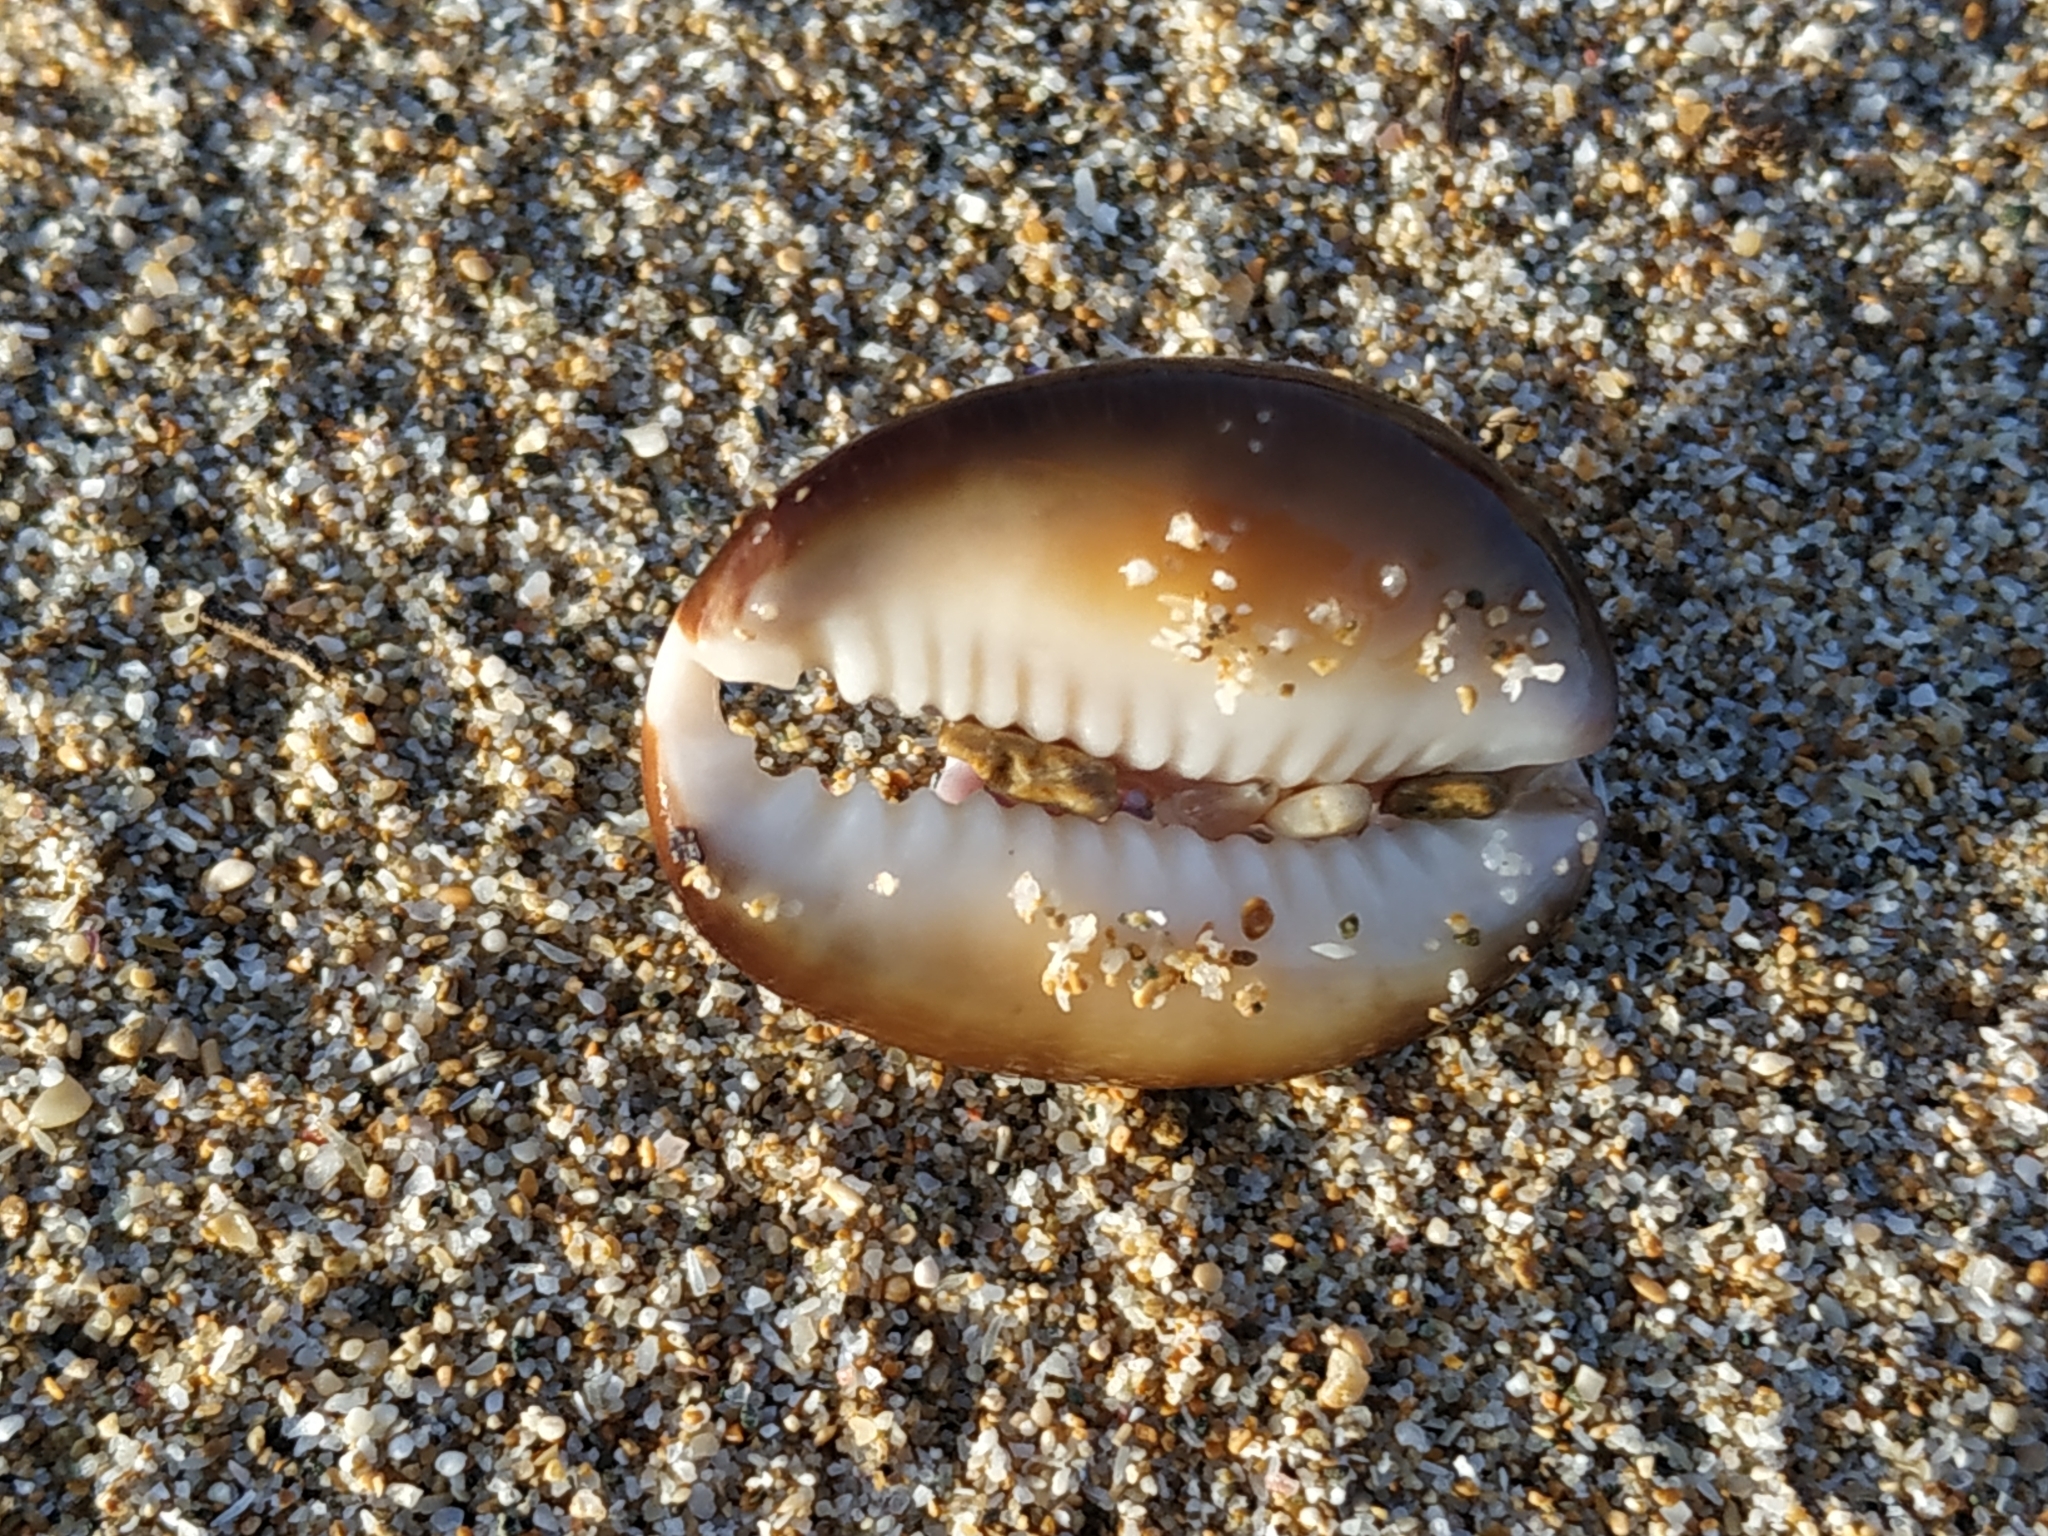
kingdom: Animalia
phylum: Mollusca
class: Gastropoda
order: Littorinimorpha
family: Cypraeidae
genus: Monetaria
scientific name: Monetaria caputserpentis
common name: Serpent's head cowrie
